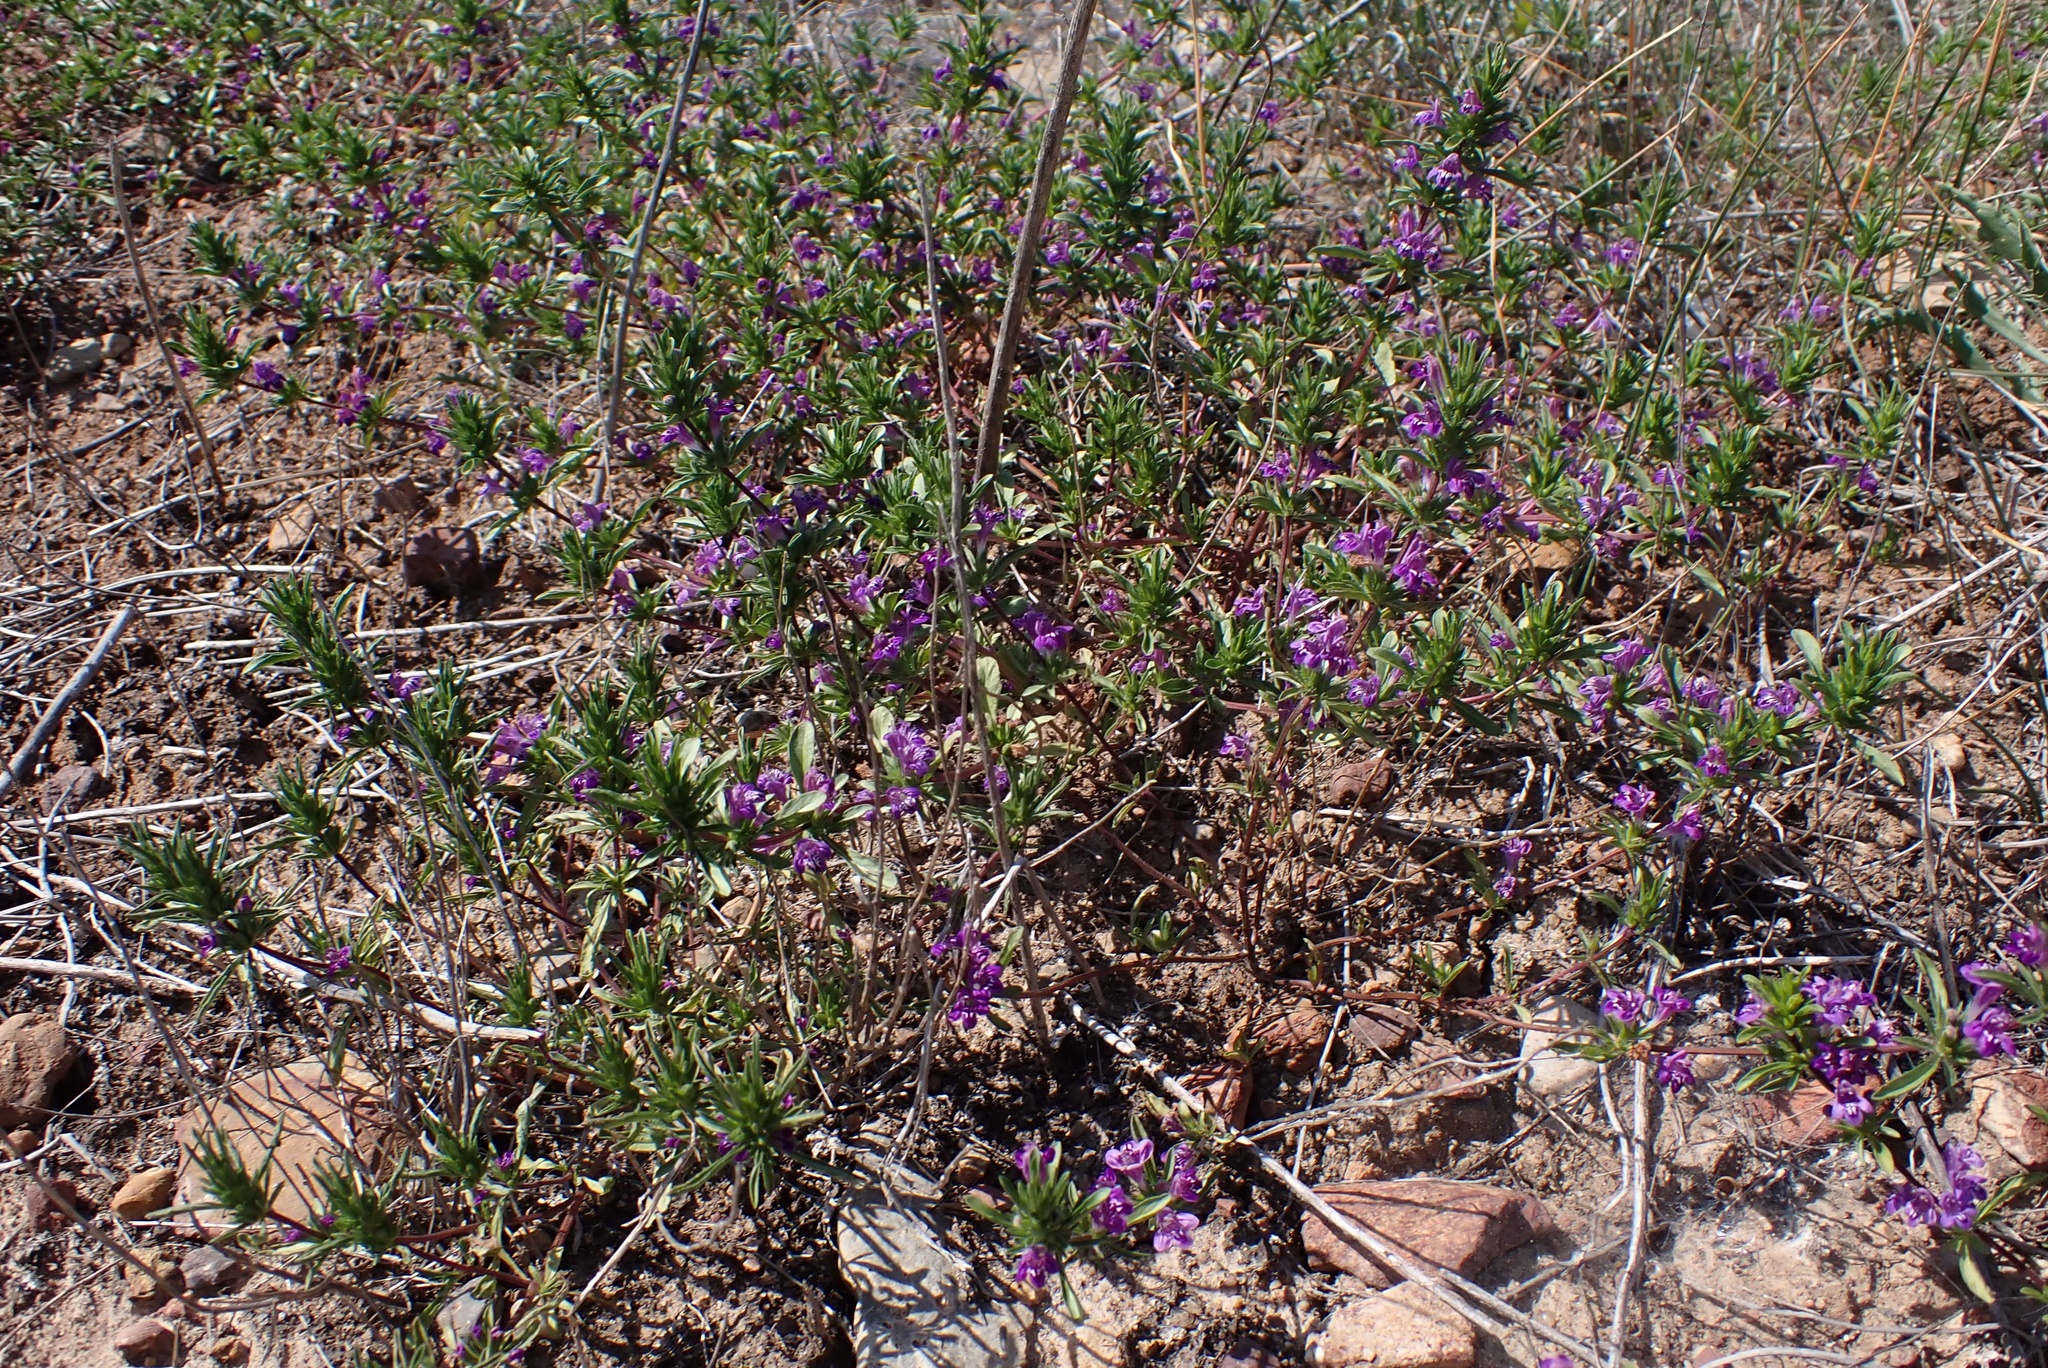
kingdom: Plantae
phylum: Tracheophyta
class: Magnoliopsida
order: Lamiales
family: Lamiaceae
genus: Pogogyne
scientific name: Pogogyne nudiuscula
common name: Otay mesa-mint
